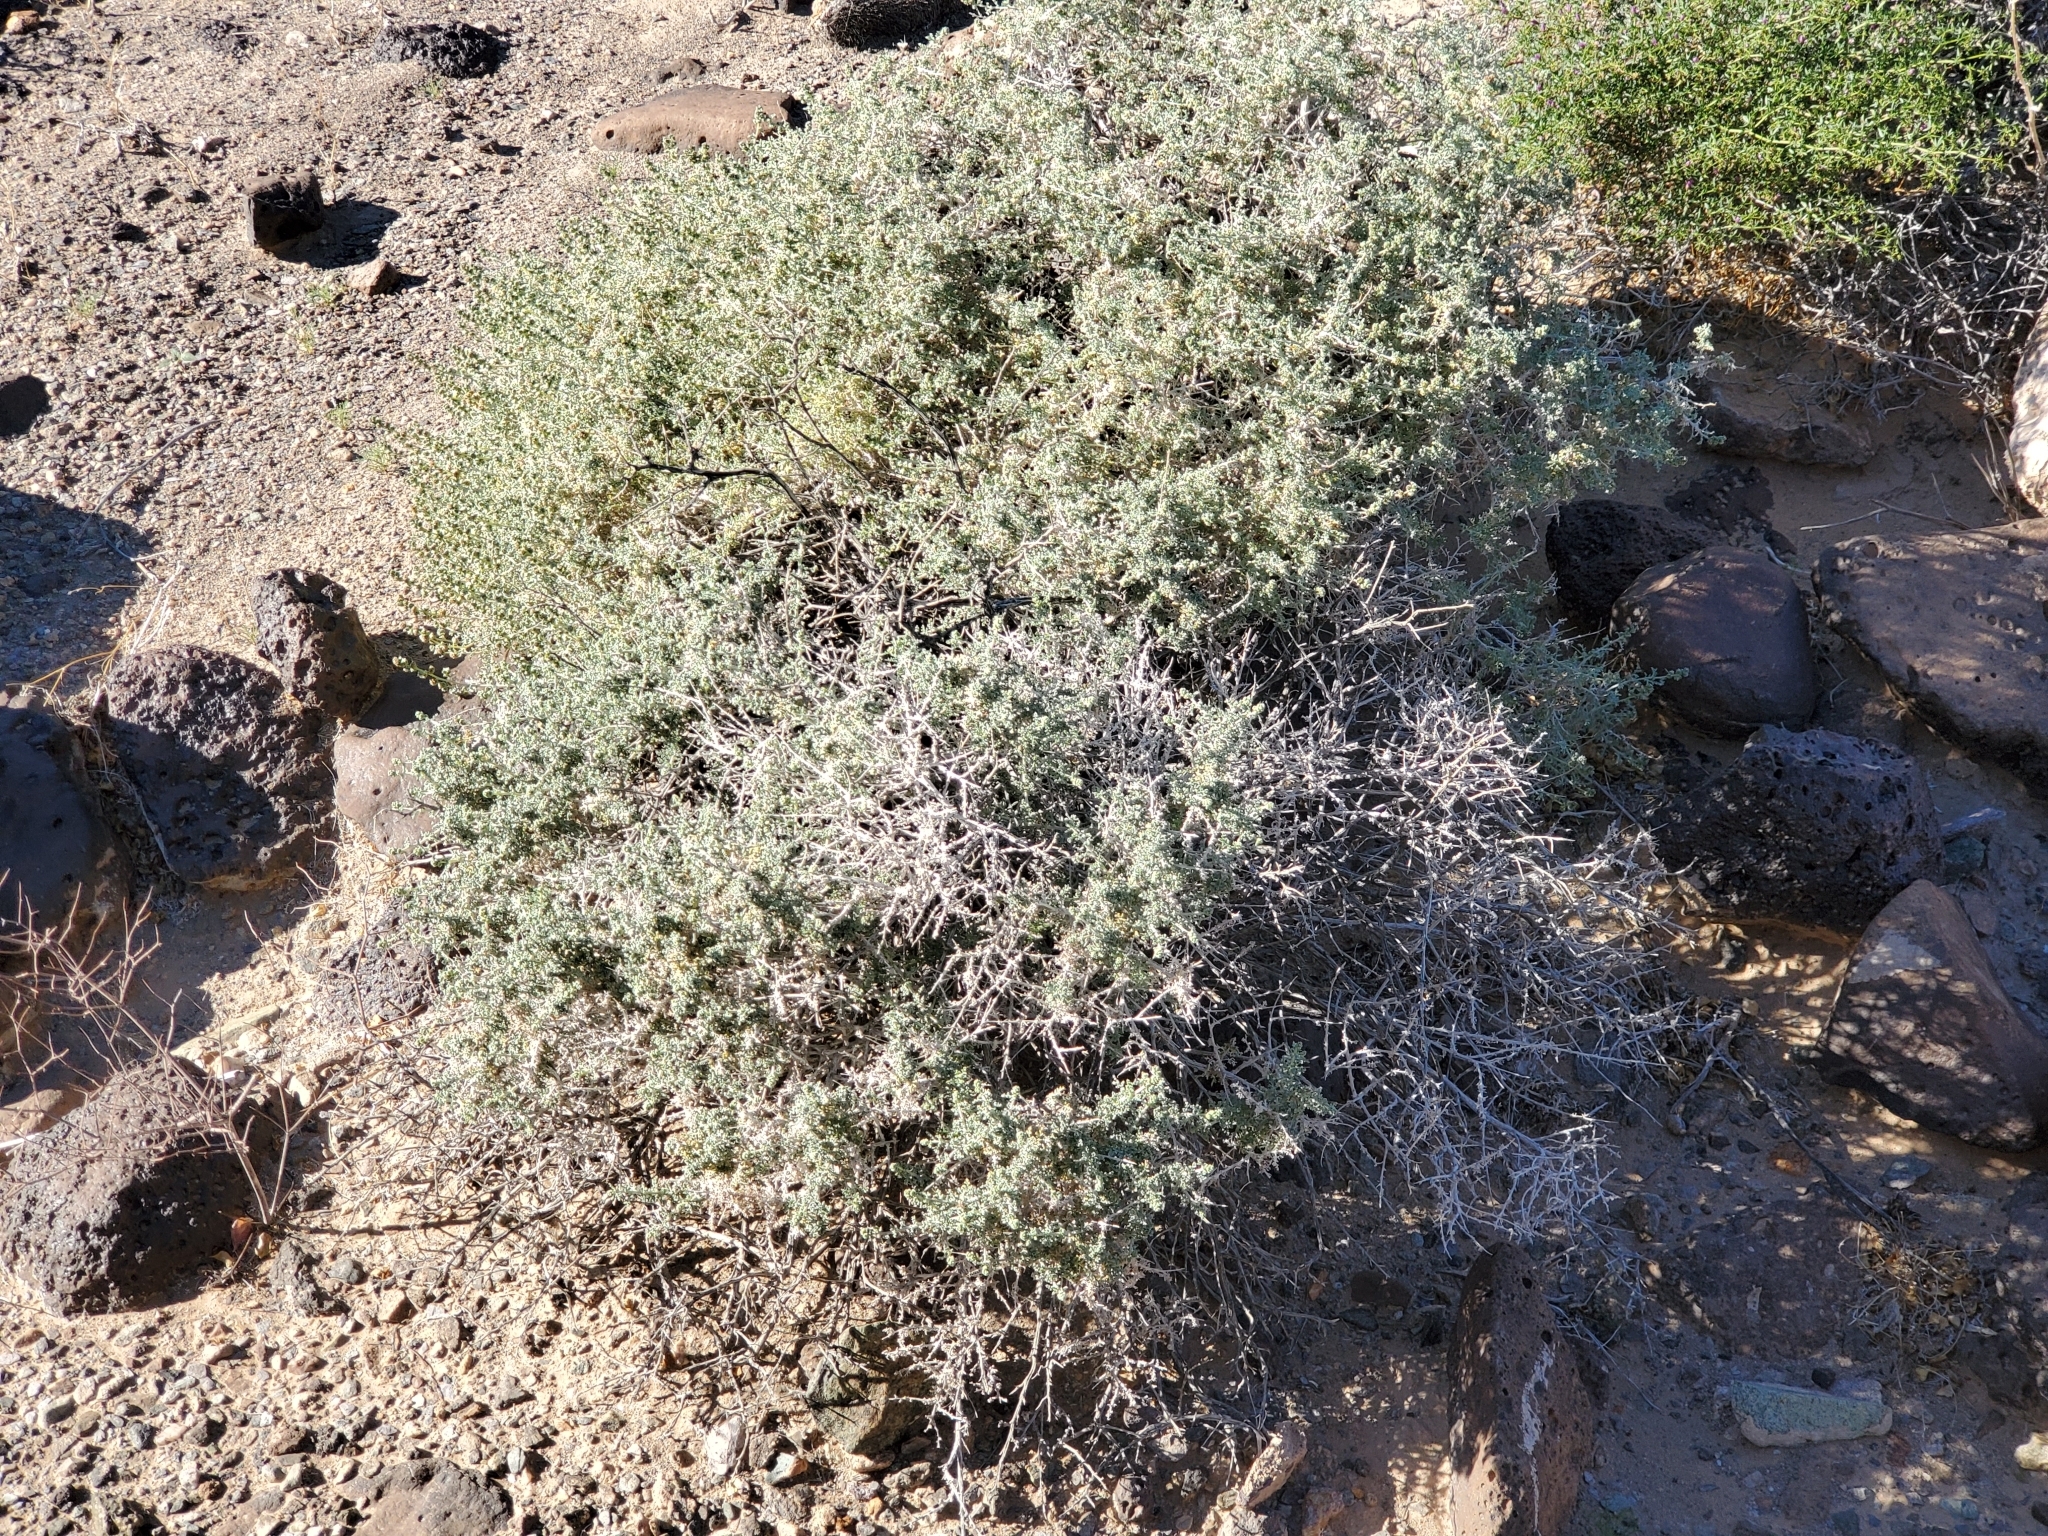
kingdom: Plantae
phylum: Tracheophyta
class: Magnoliopsida
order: Asterales
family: Asteraceae
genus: Ambrosia
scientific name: Ambrosia dumosa
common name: Bur-sage
